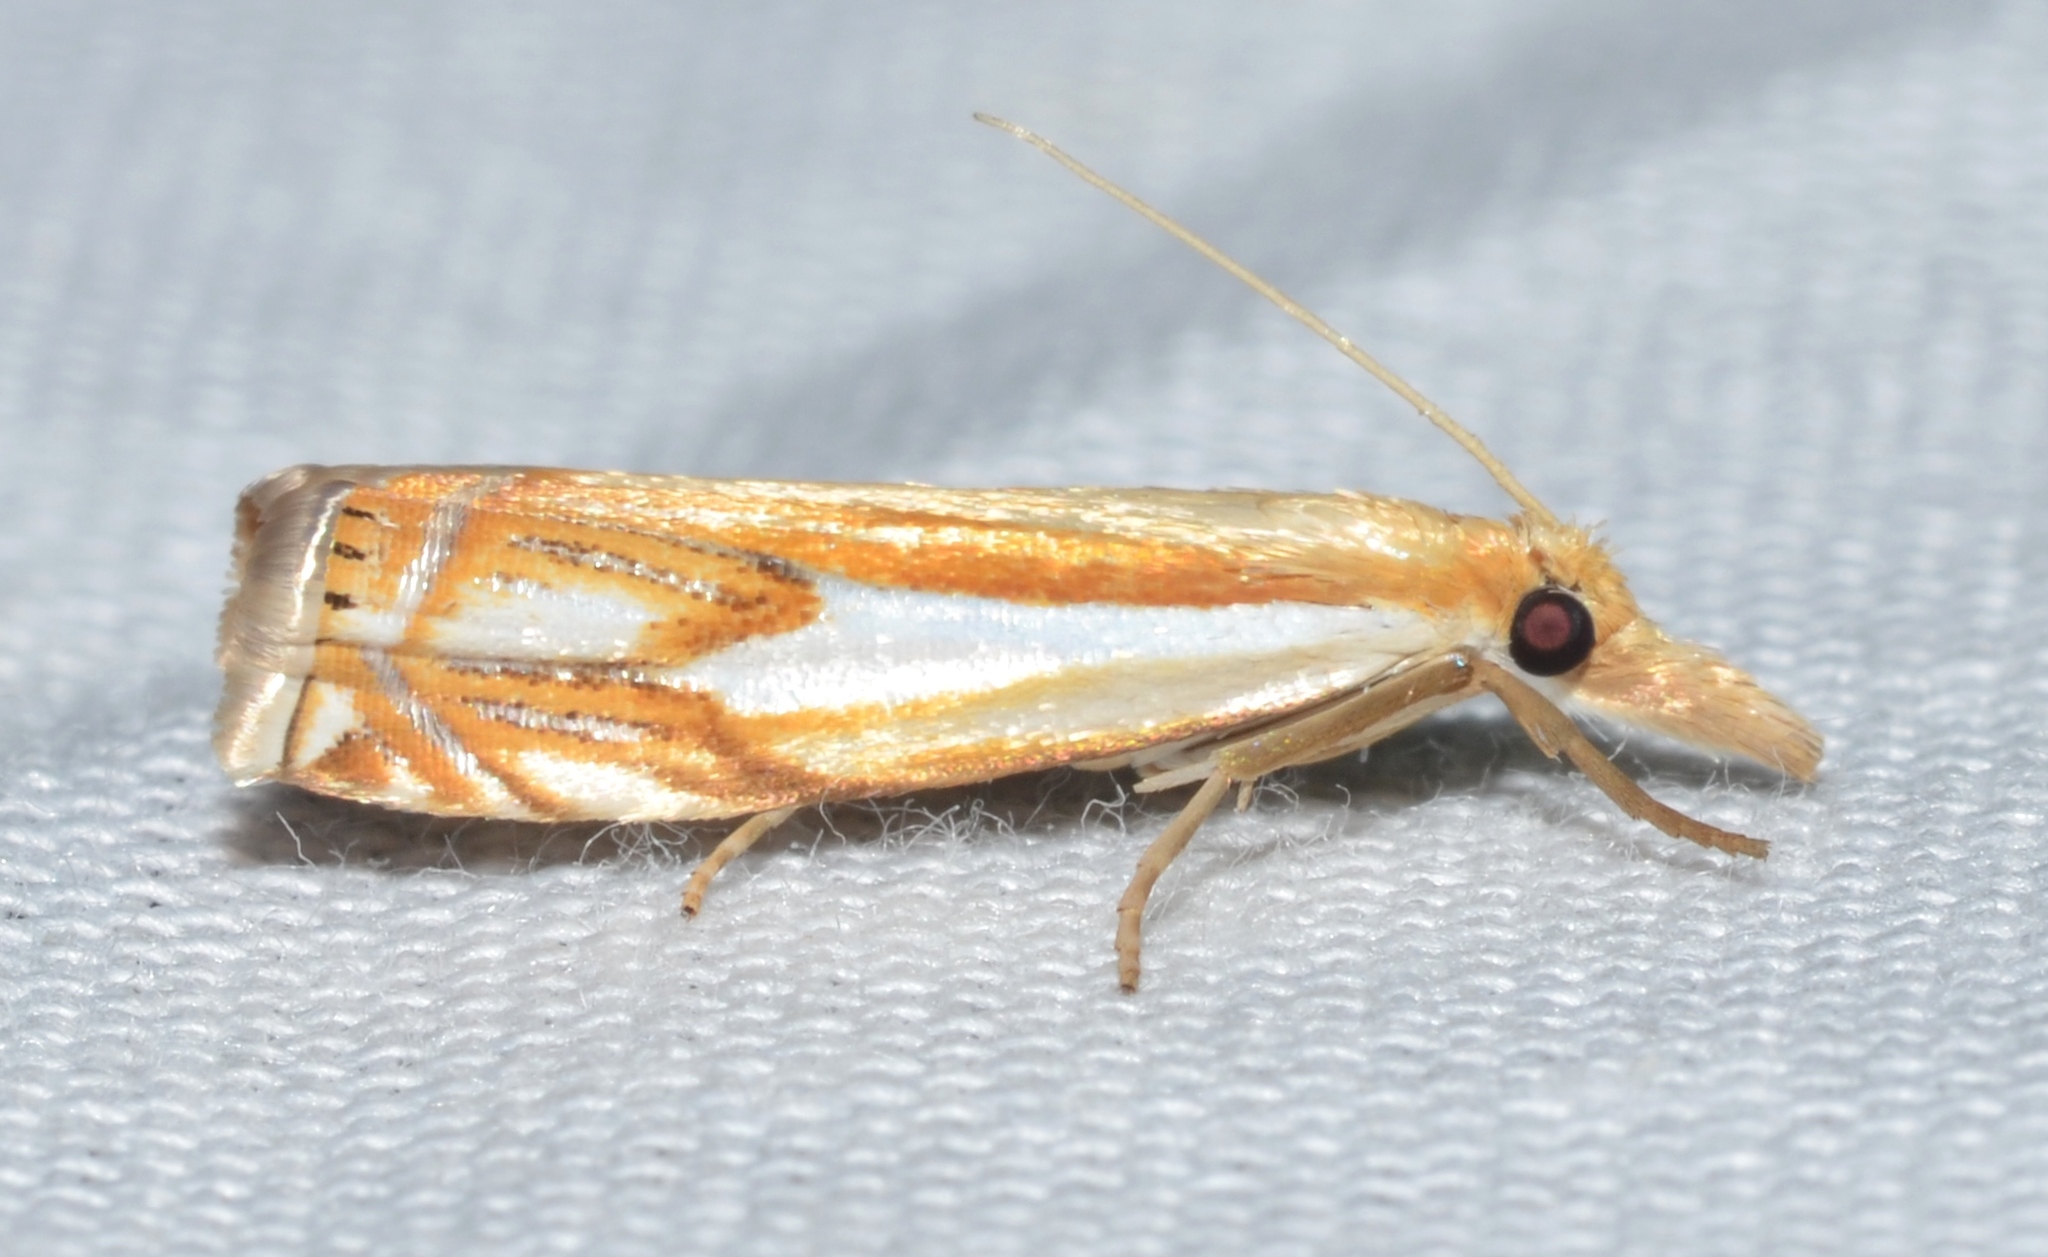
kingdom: Animalia
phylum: Arthropoda
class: Insecta
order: Lepidoptera
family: Crambidae
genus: Crambus
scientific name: Crambus agitatellus
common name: Double-banded grass-veneer
